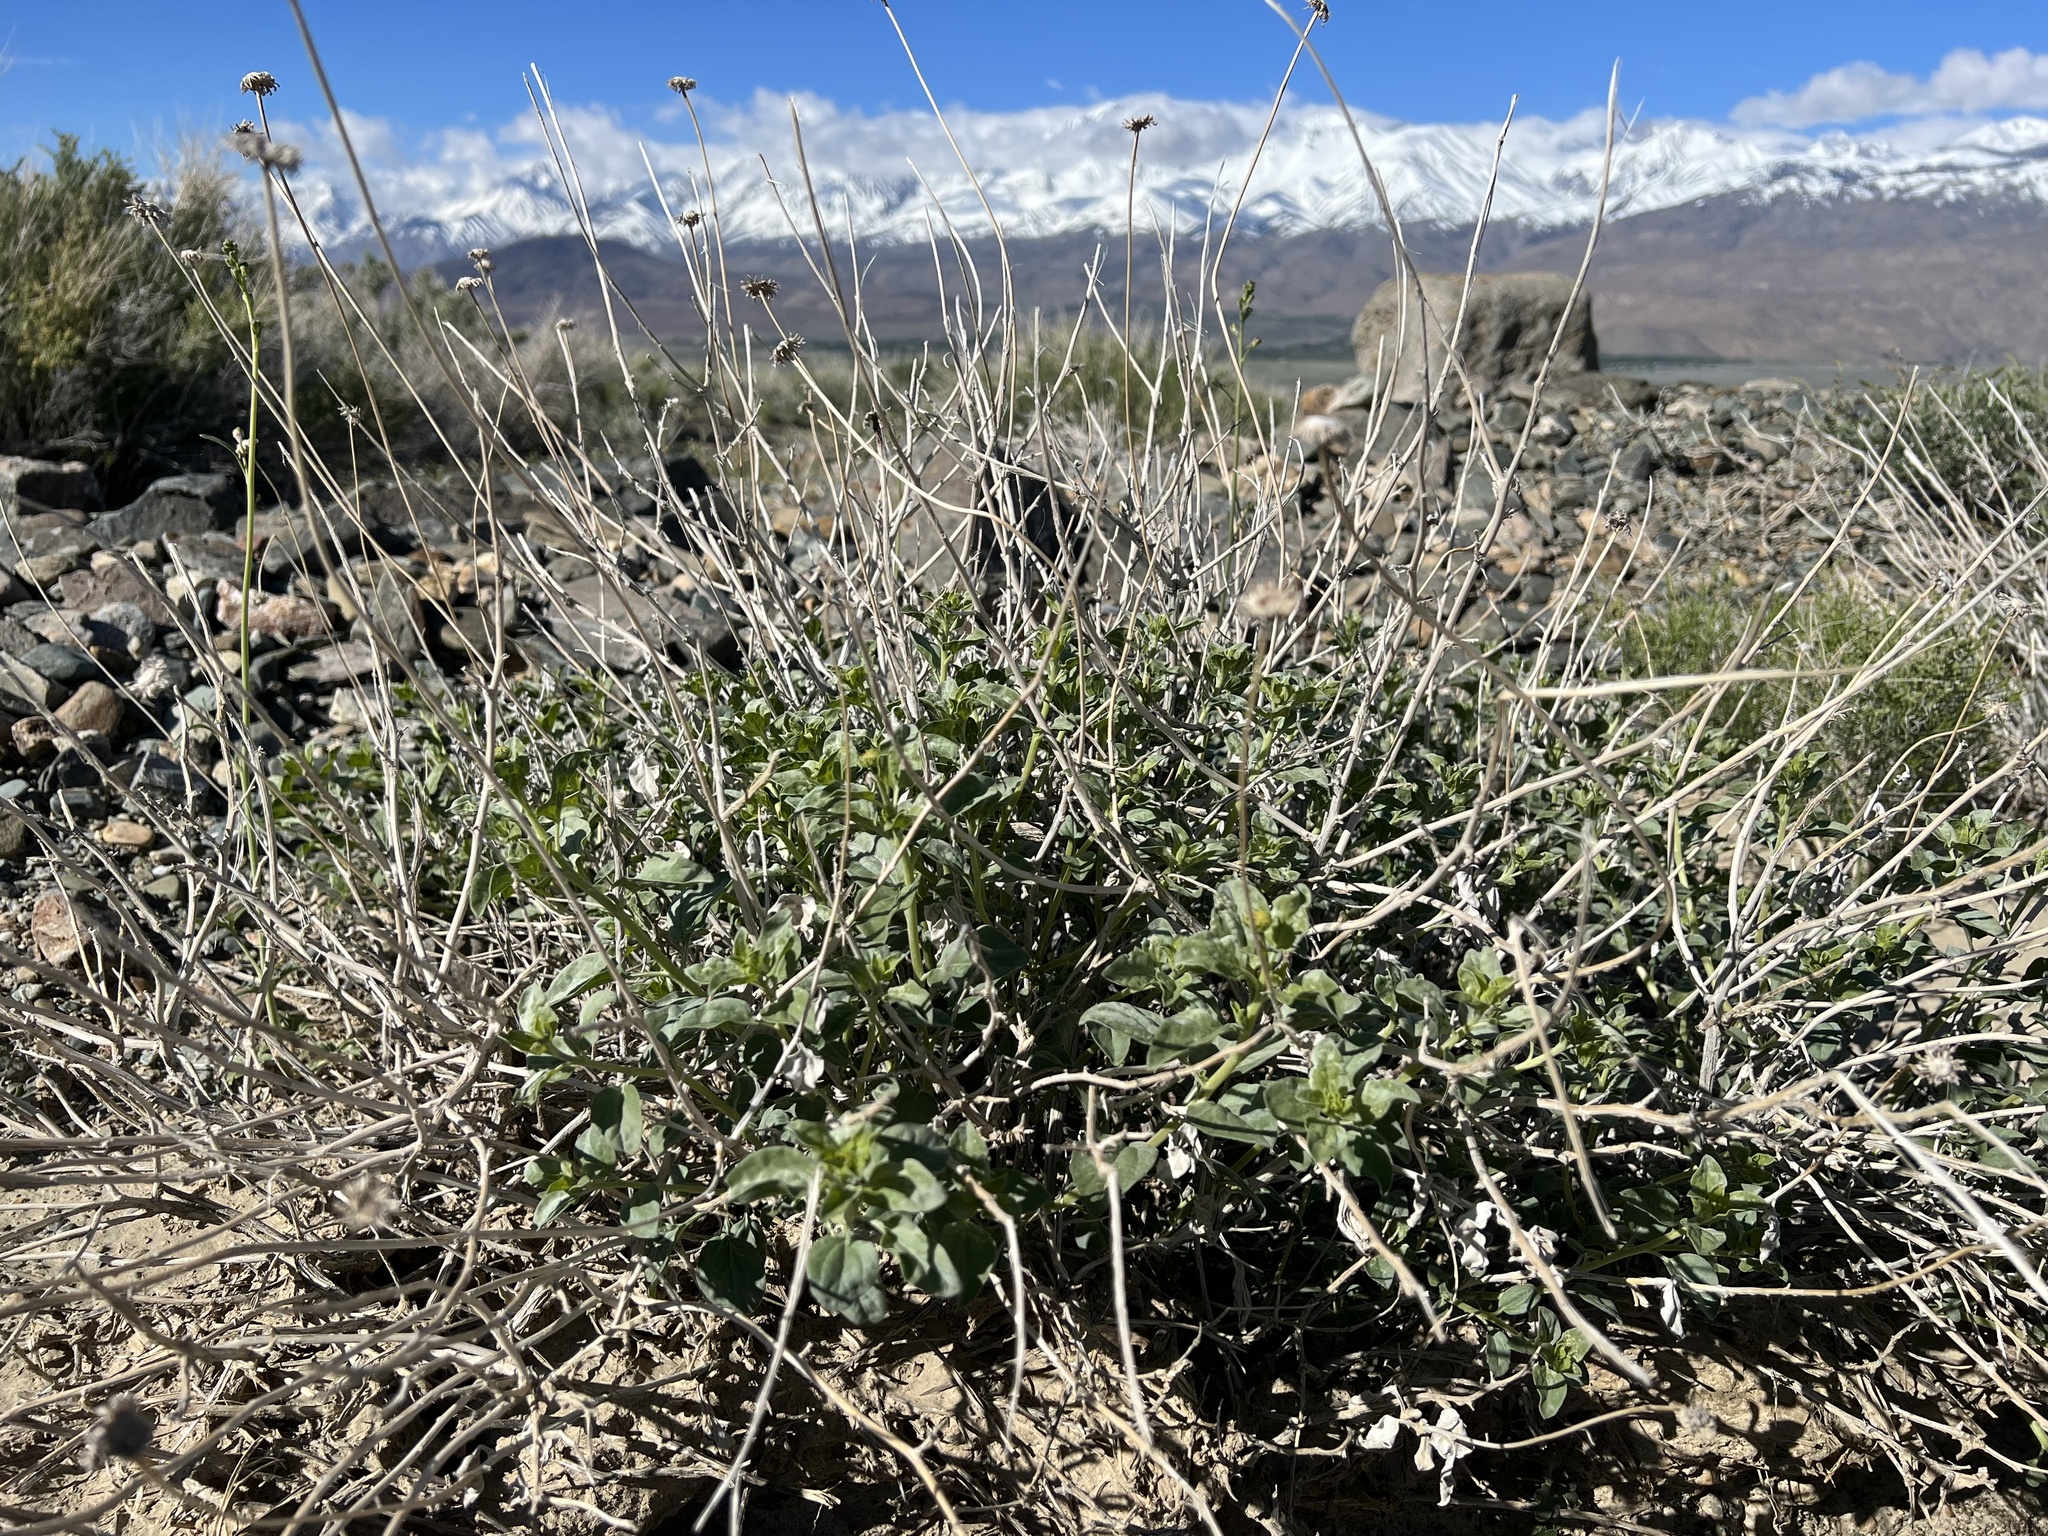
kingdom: Plantae
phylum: Tracheophyta
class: Magnoliopsida
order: Asterales
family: Asteraceae
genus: Encelia
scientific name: Encelia actoni
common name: Acton encelia
